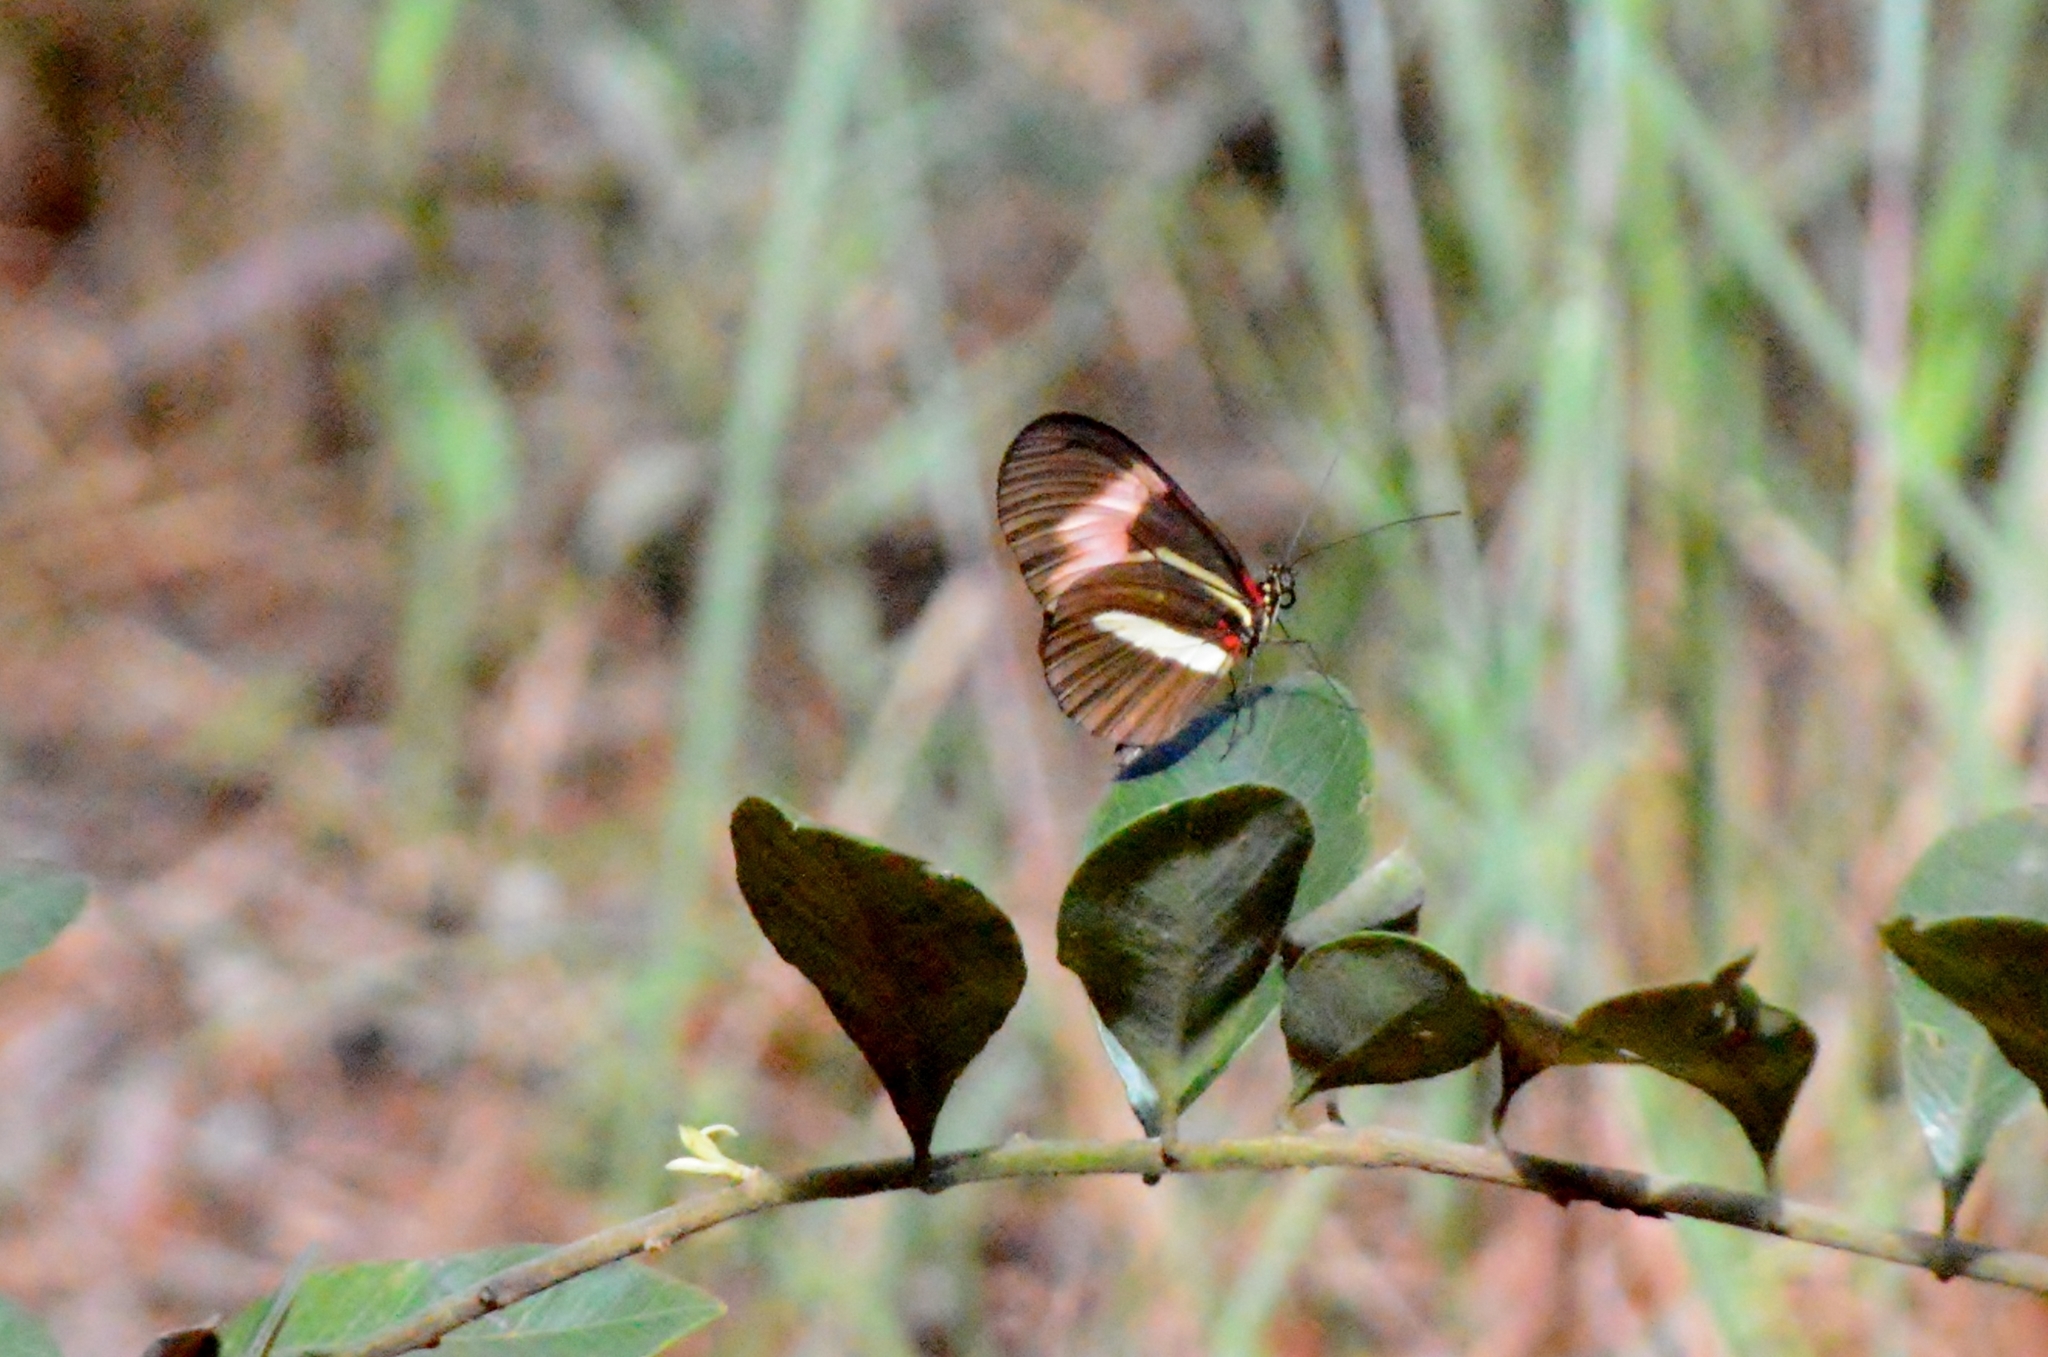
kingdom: Animalia
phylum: Arthropoda
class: Insecta
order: Lepidoptera
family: Nymphalidae
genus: Heliconius
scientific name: Heliconius melpomene
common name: Postman
